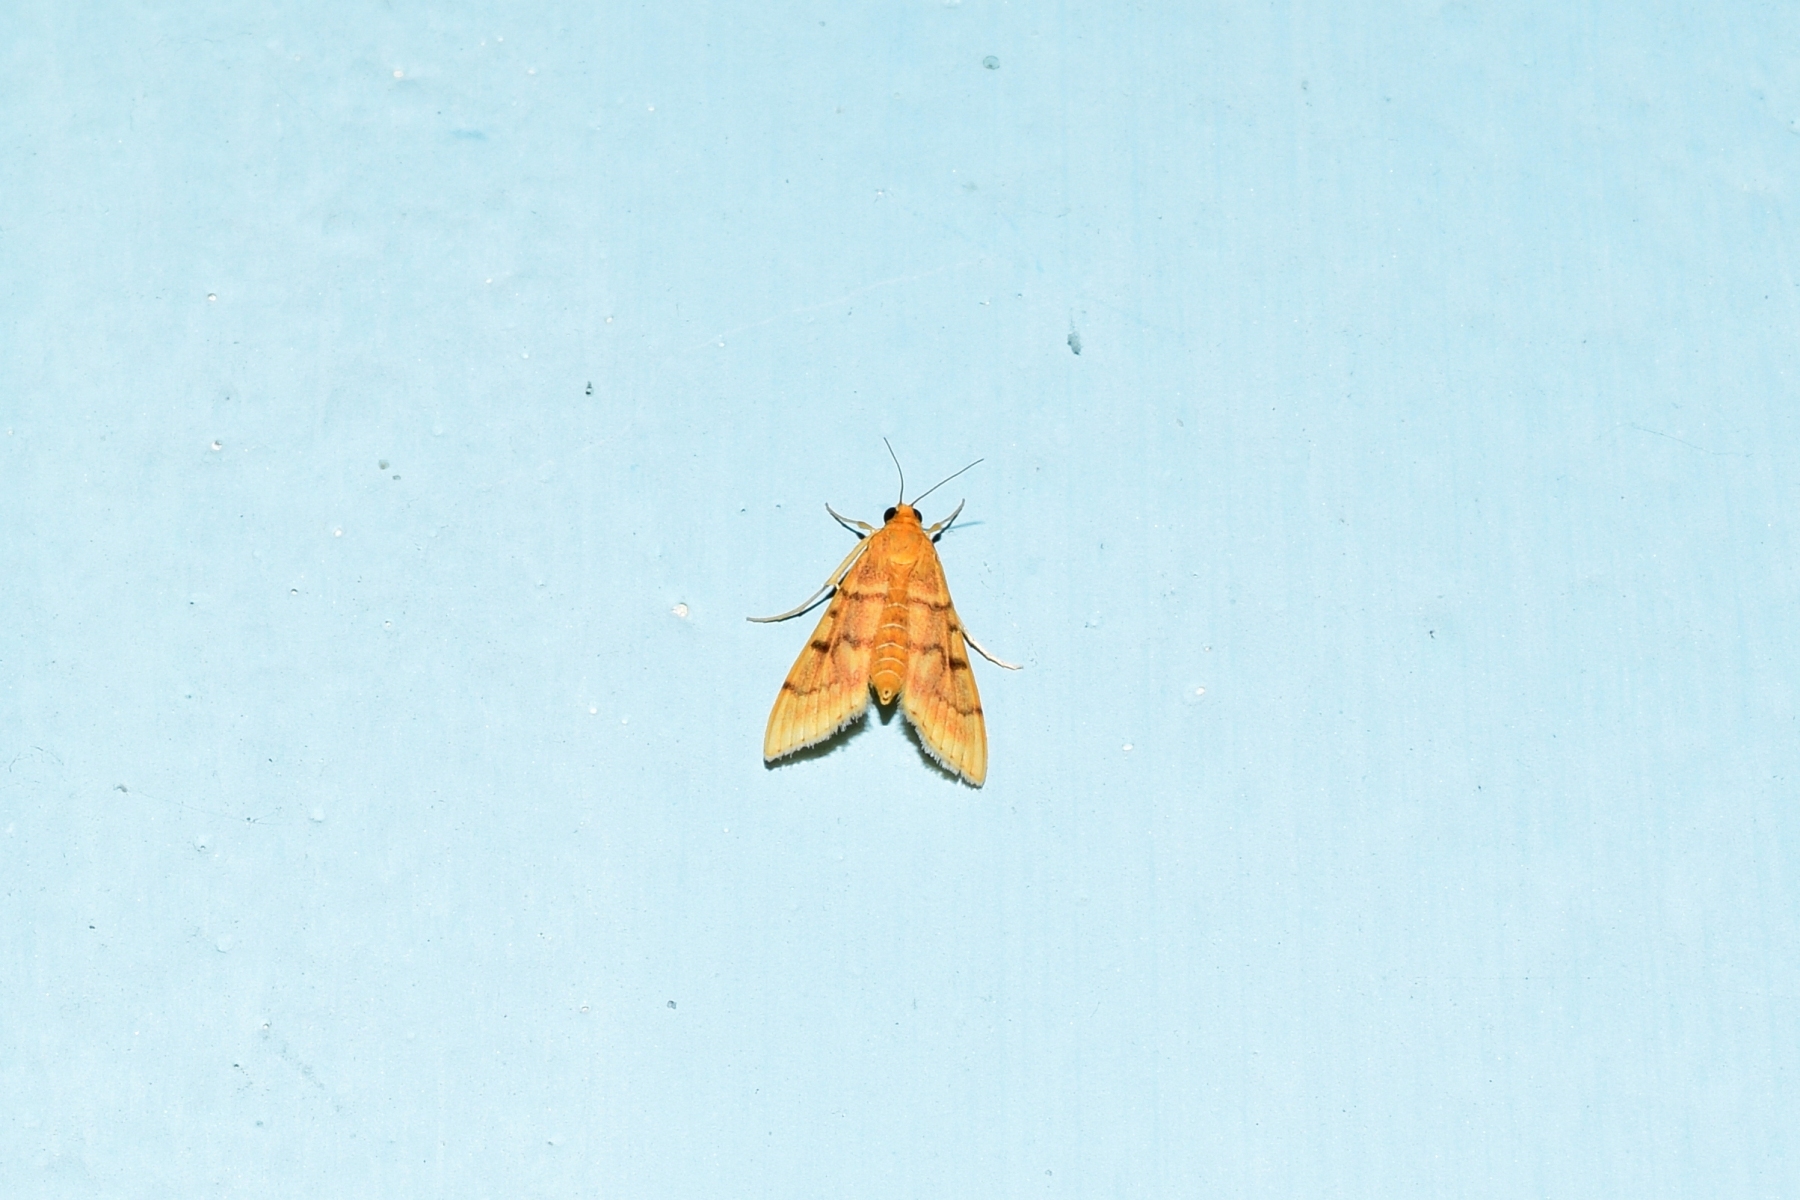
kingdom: Animalia
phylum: Arthropoda
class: Insecta
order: Lepidoptera
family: Crambidae
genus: Omiodes
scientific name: Omiodes indicata
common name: Bean-leaf webworm moth
